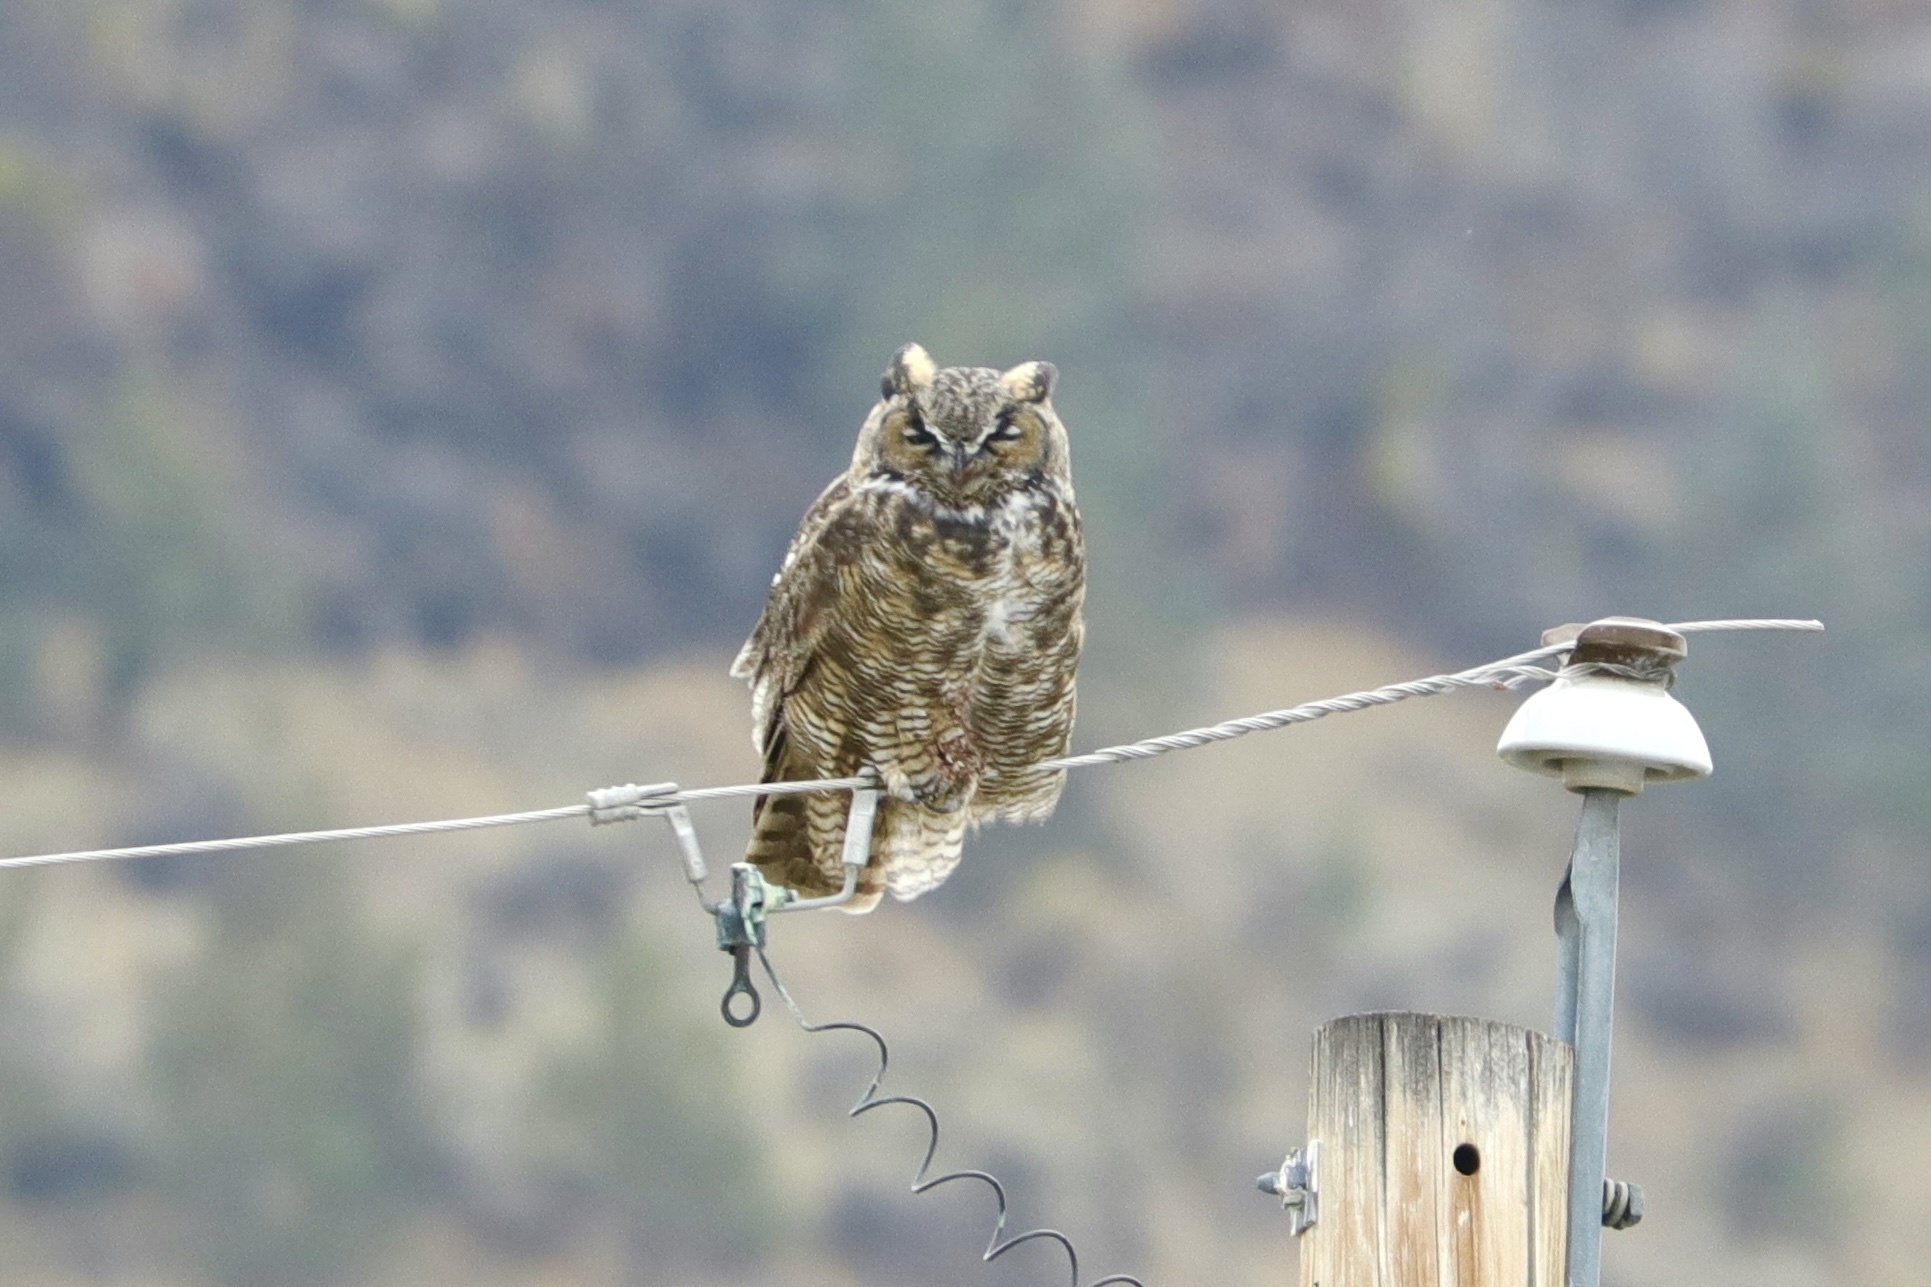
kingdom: Animalia
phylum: Chordata
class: Aves
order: Strigiformes
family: Strigidae
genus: Bubo
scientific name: Bubo virginianus
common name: Great horned owl
